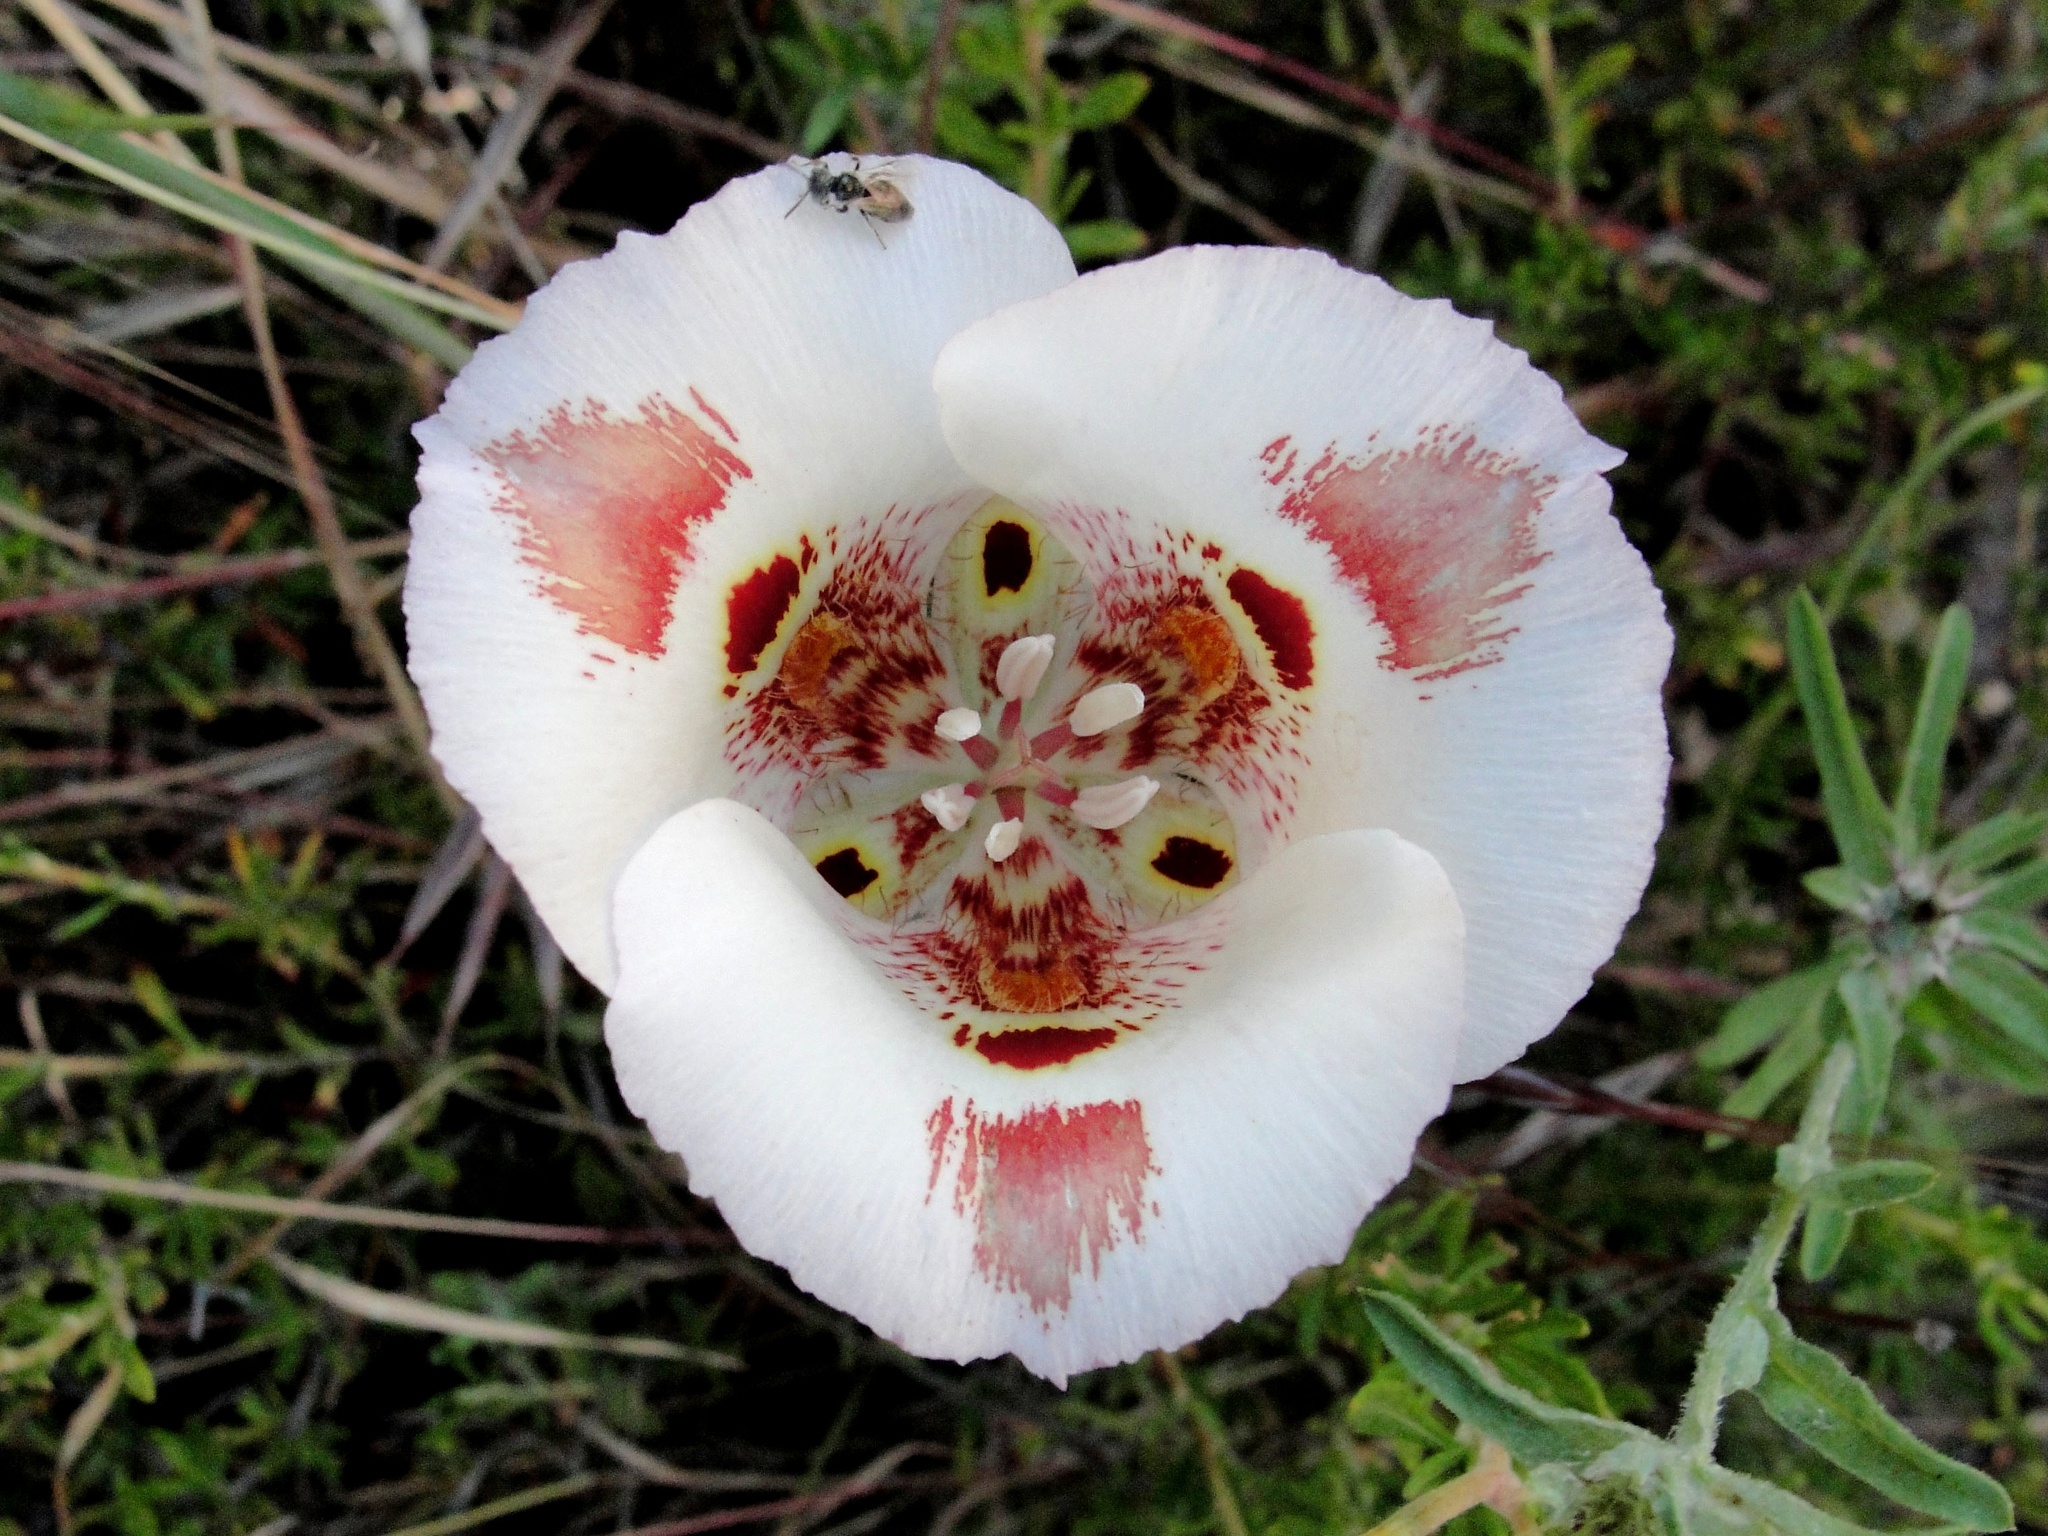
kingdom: Plantae
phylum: Tracheophyta
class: Liliopsida
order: Liliales
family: Liliaceae
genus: Calochortus
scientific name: Calochortus venustus
